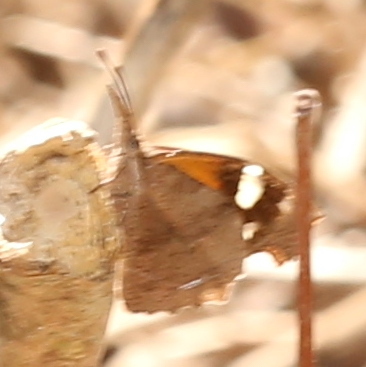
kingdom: Animalia
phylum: Arthropoda
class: Insecta
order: Lepidoptera
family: Nymphalidae
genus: Libytheana
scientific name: Libytheana carinenta
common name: American snout
